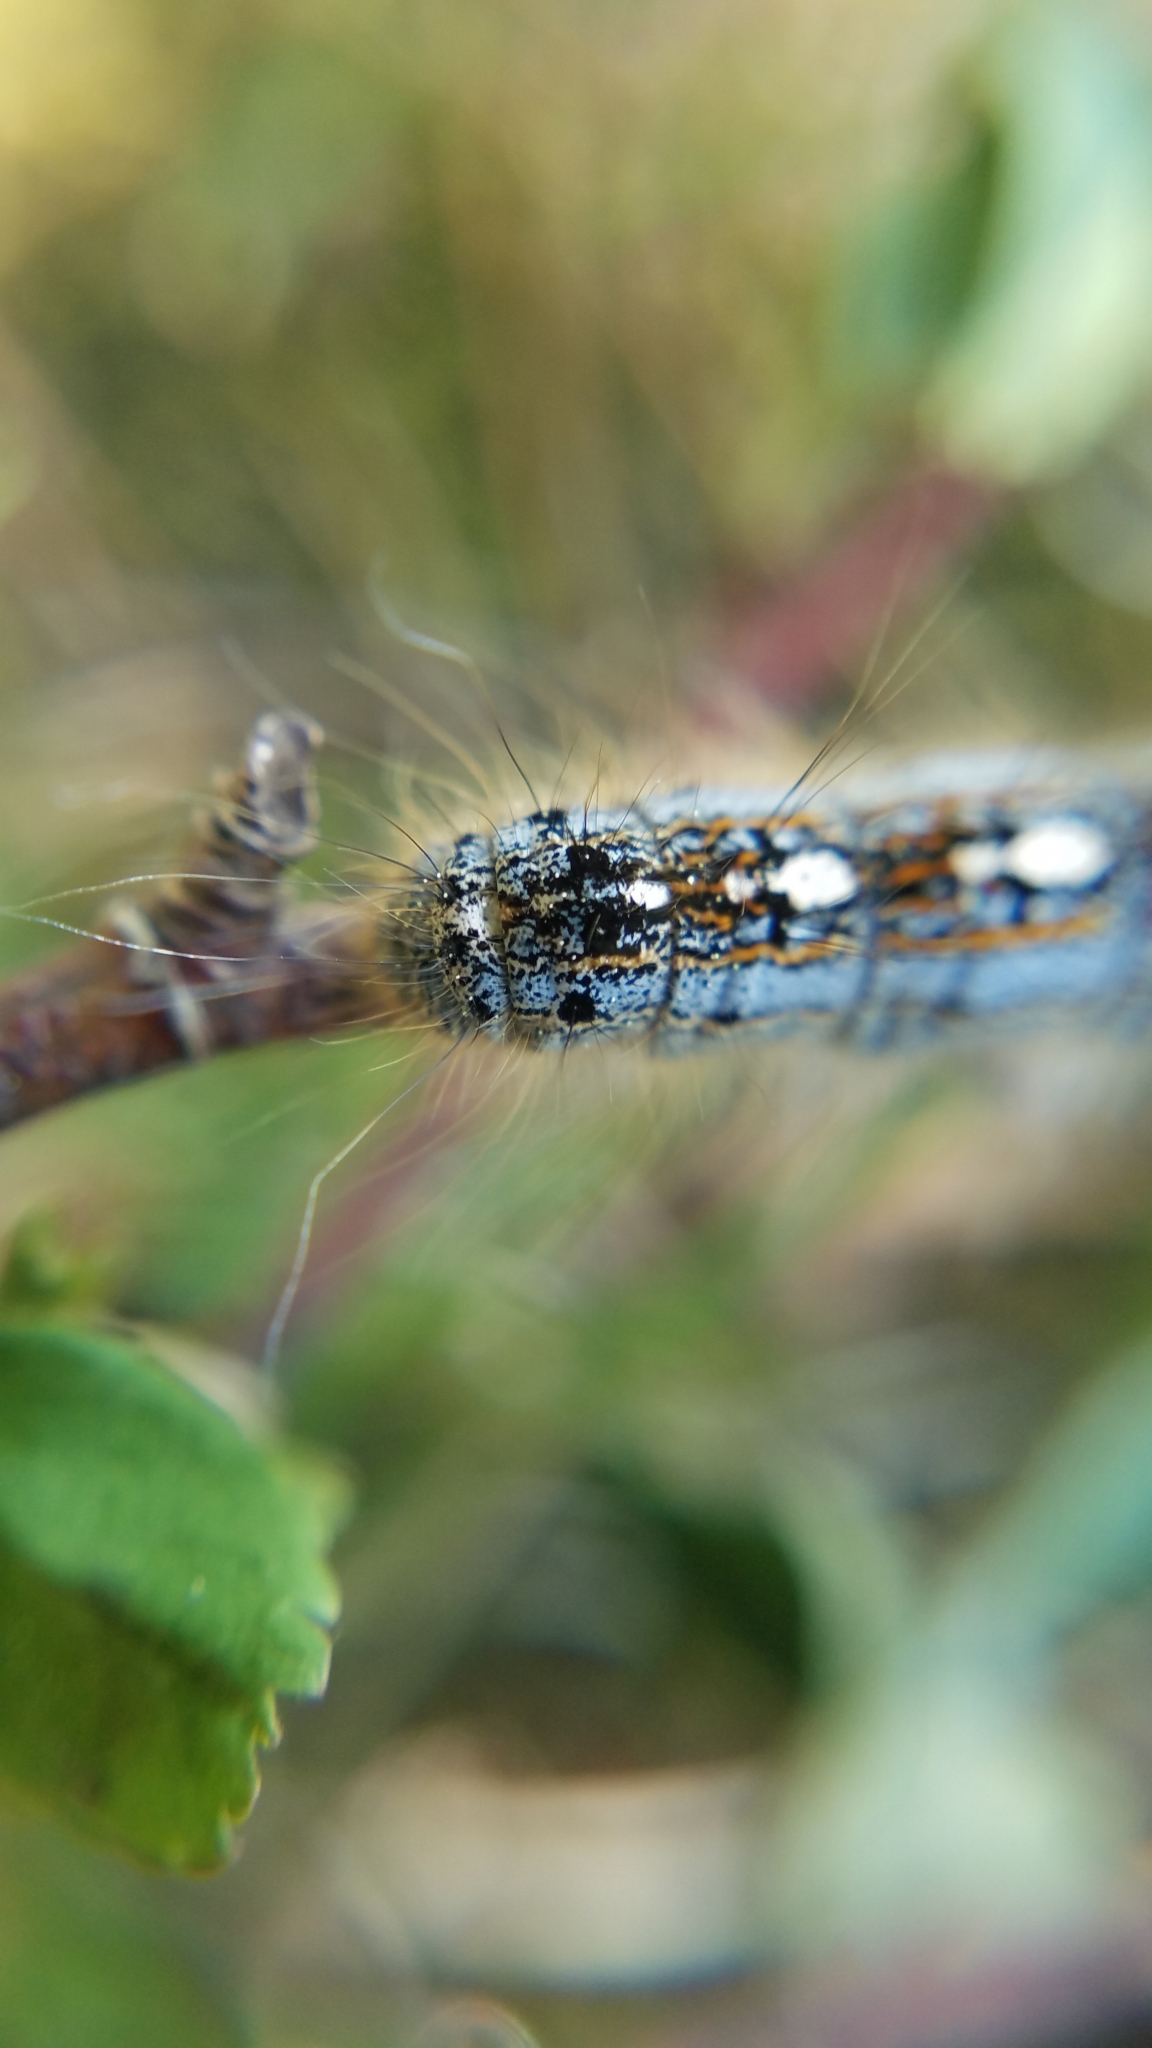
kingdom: Animalia
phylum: Arthropoda
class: Insecta
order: Lepidoptera
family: Lasiocampidae
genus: Malacosoma
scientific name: Malacosoma disstria
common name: Forest tent caterpillar
